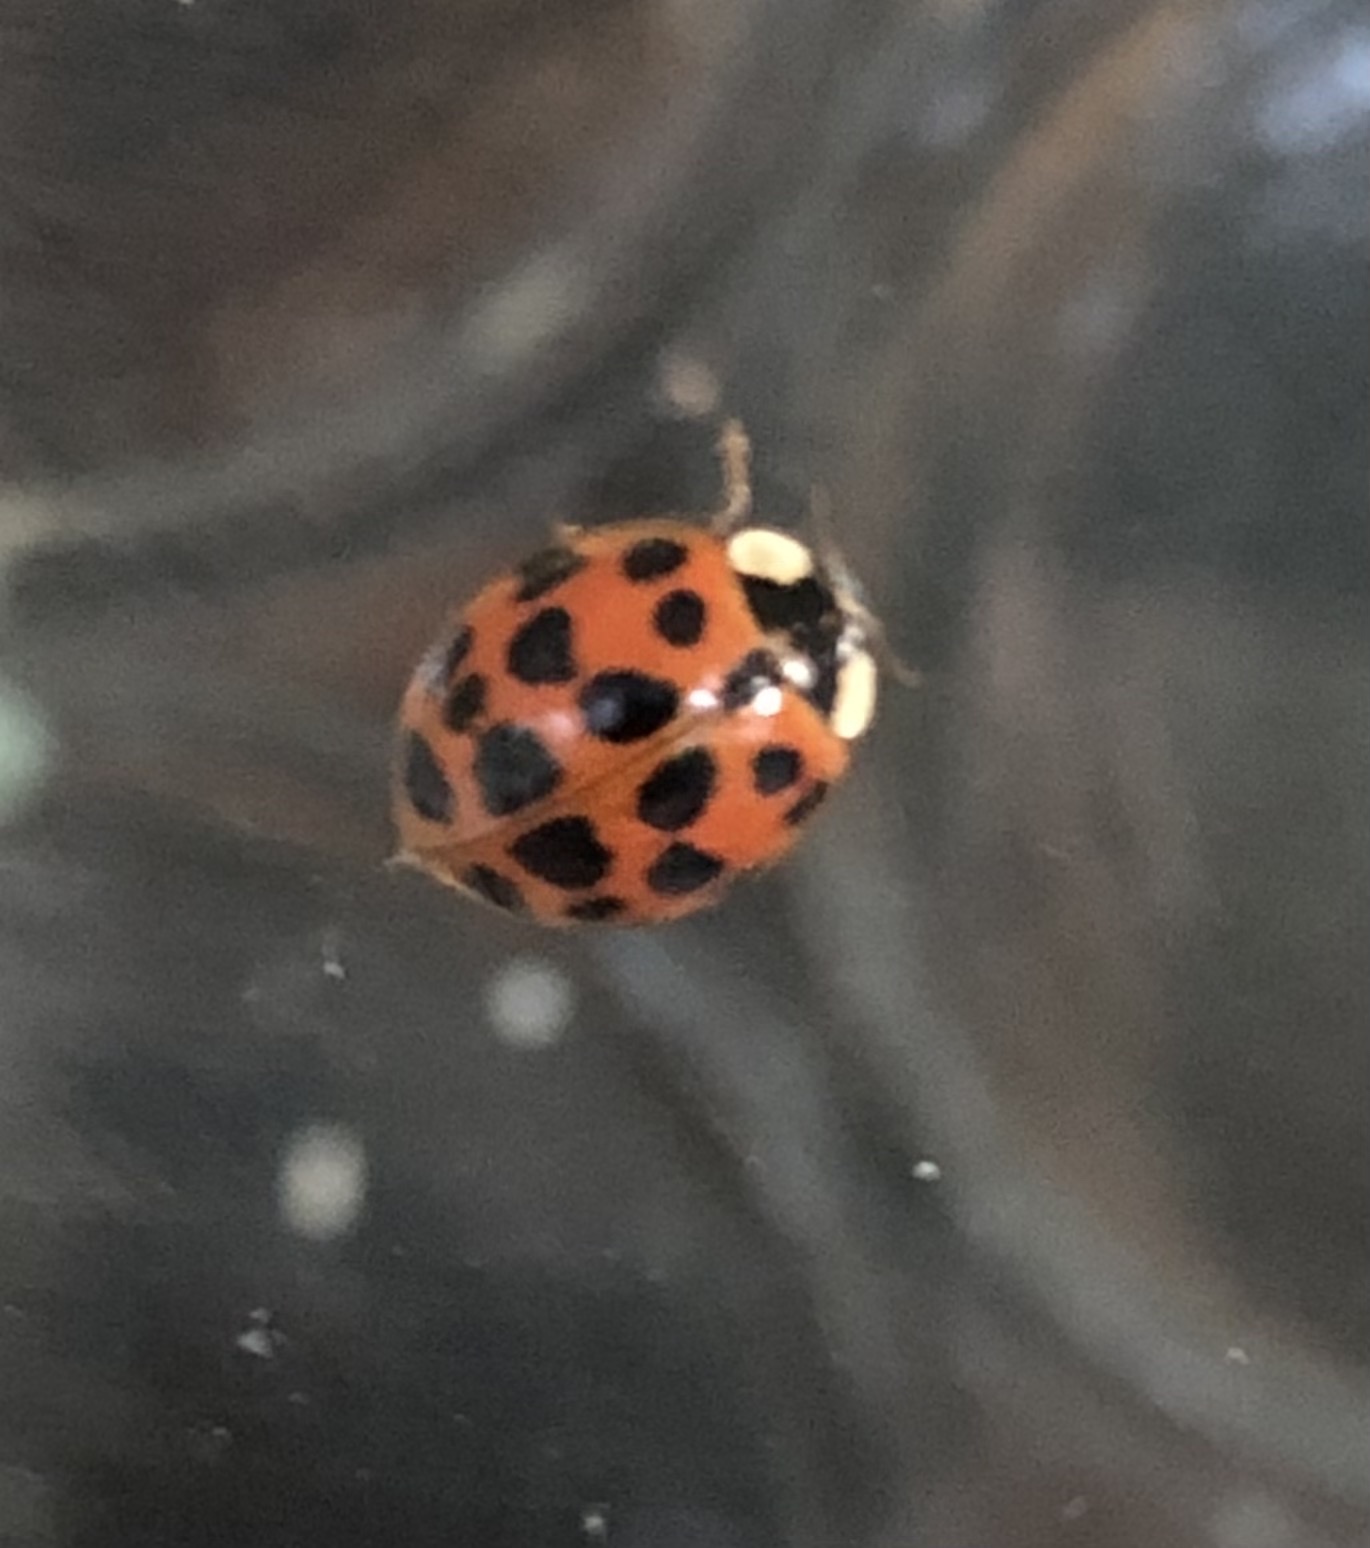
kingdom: Animalia
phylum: Arthropoda
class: Insecta
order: Coleoptera
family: Coccinellidae
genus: Harmonia
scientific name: Harmonia axyridis
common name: Harlequin ladybird
